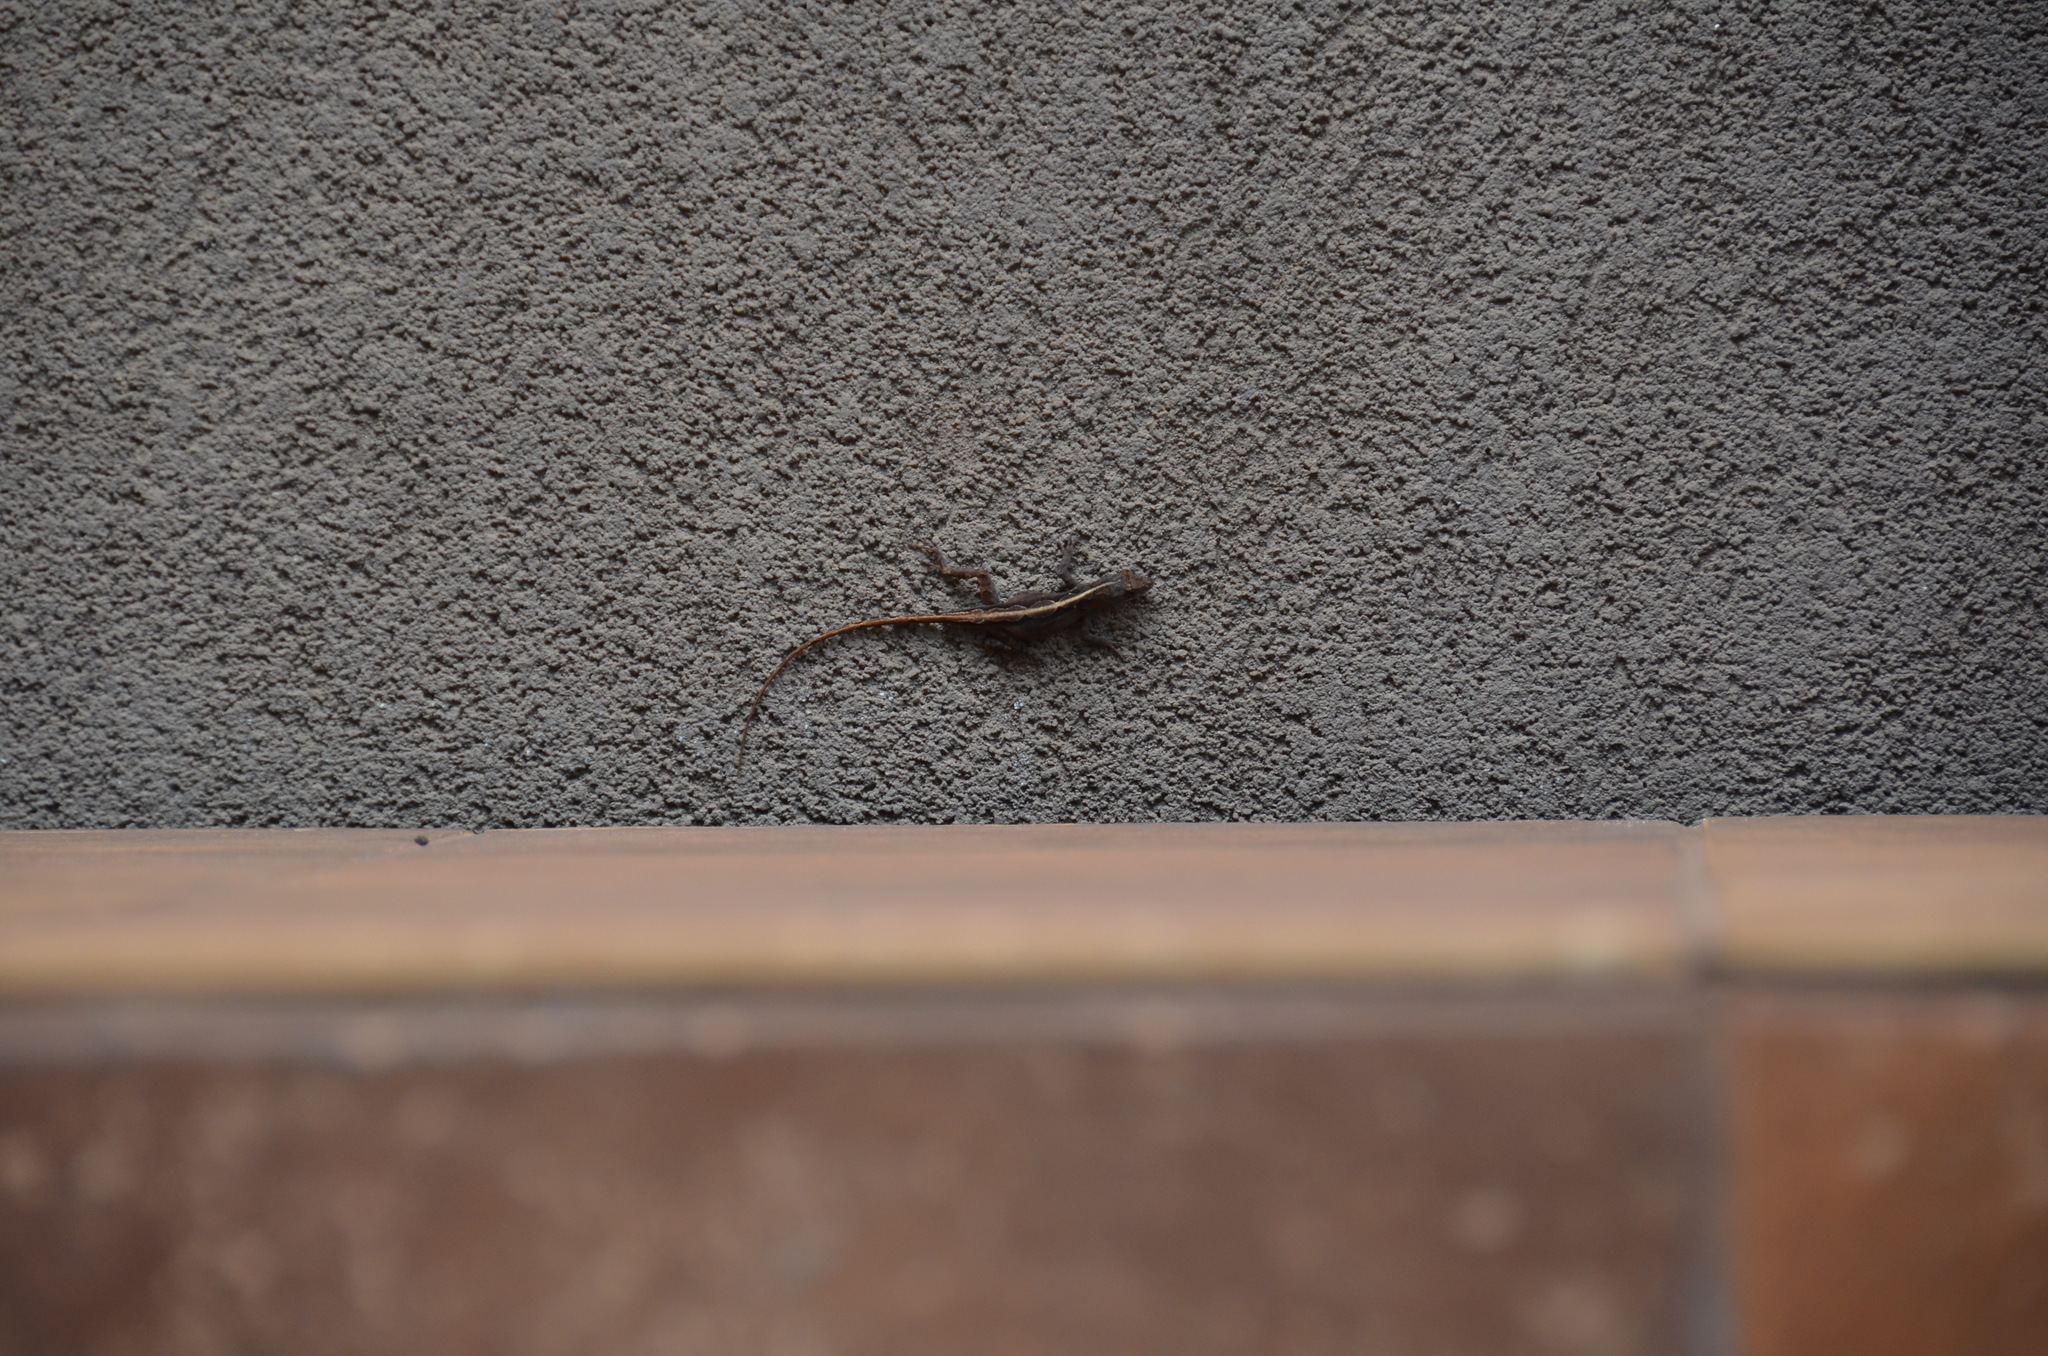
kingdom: Animalia
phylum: Chordata
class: Squamata
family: Dactyloidae
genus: Anolis
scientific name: Anolis sagrei
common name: Brown anole
